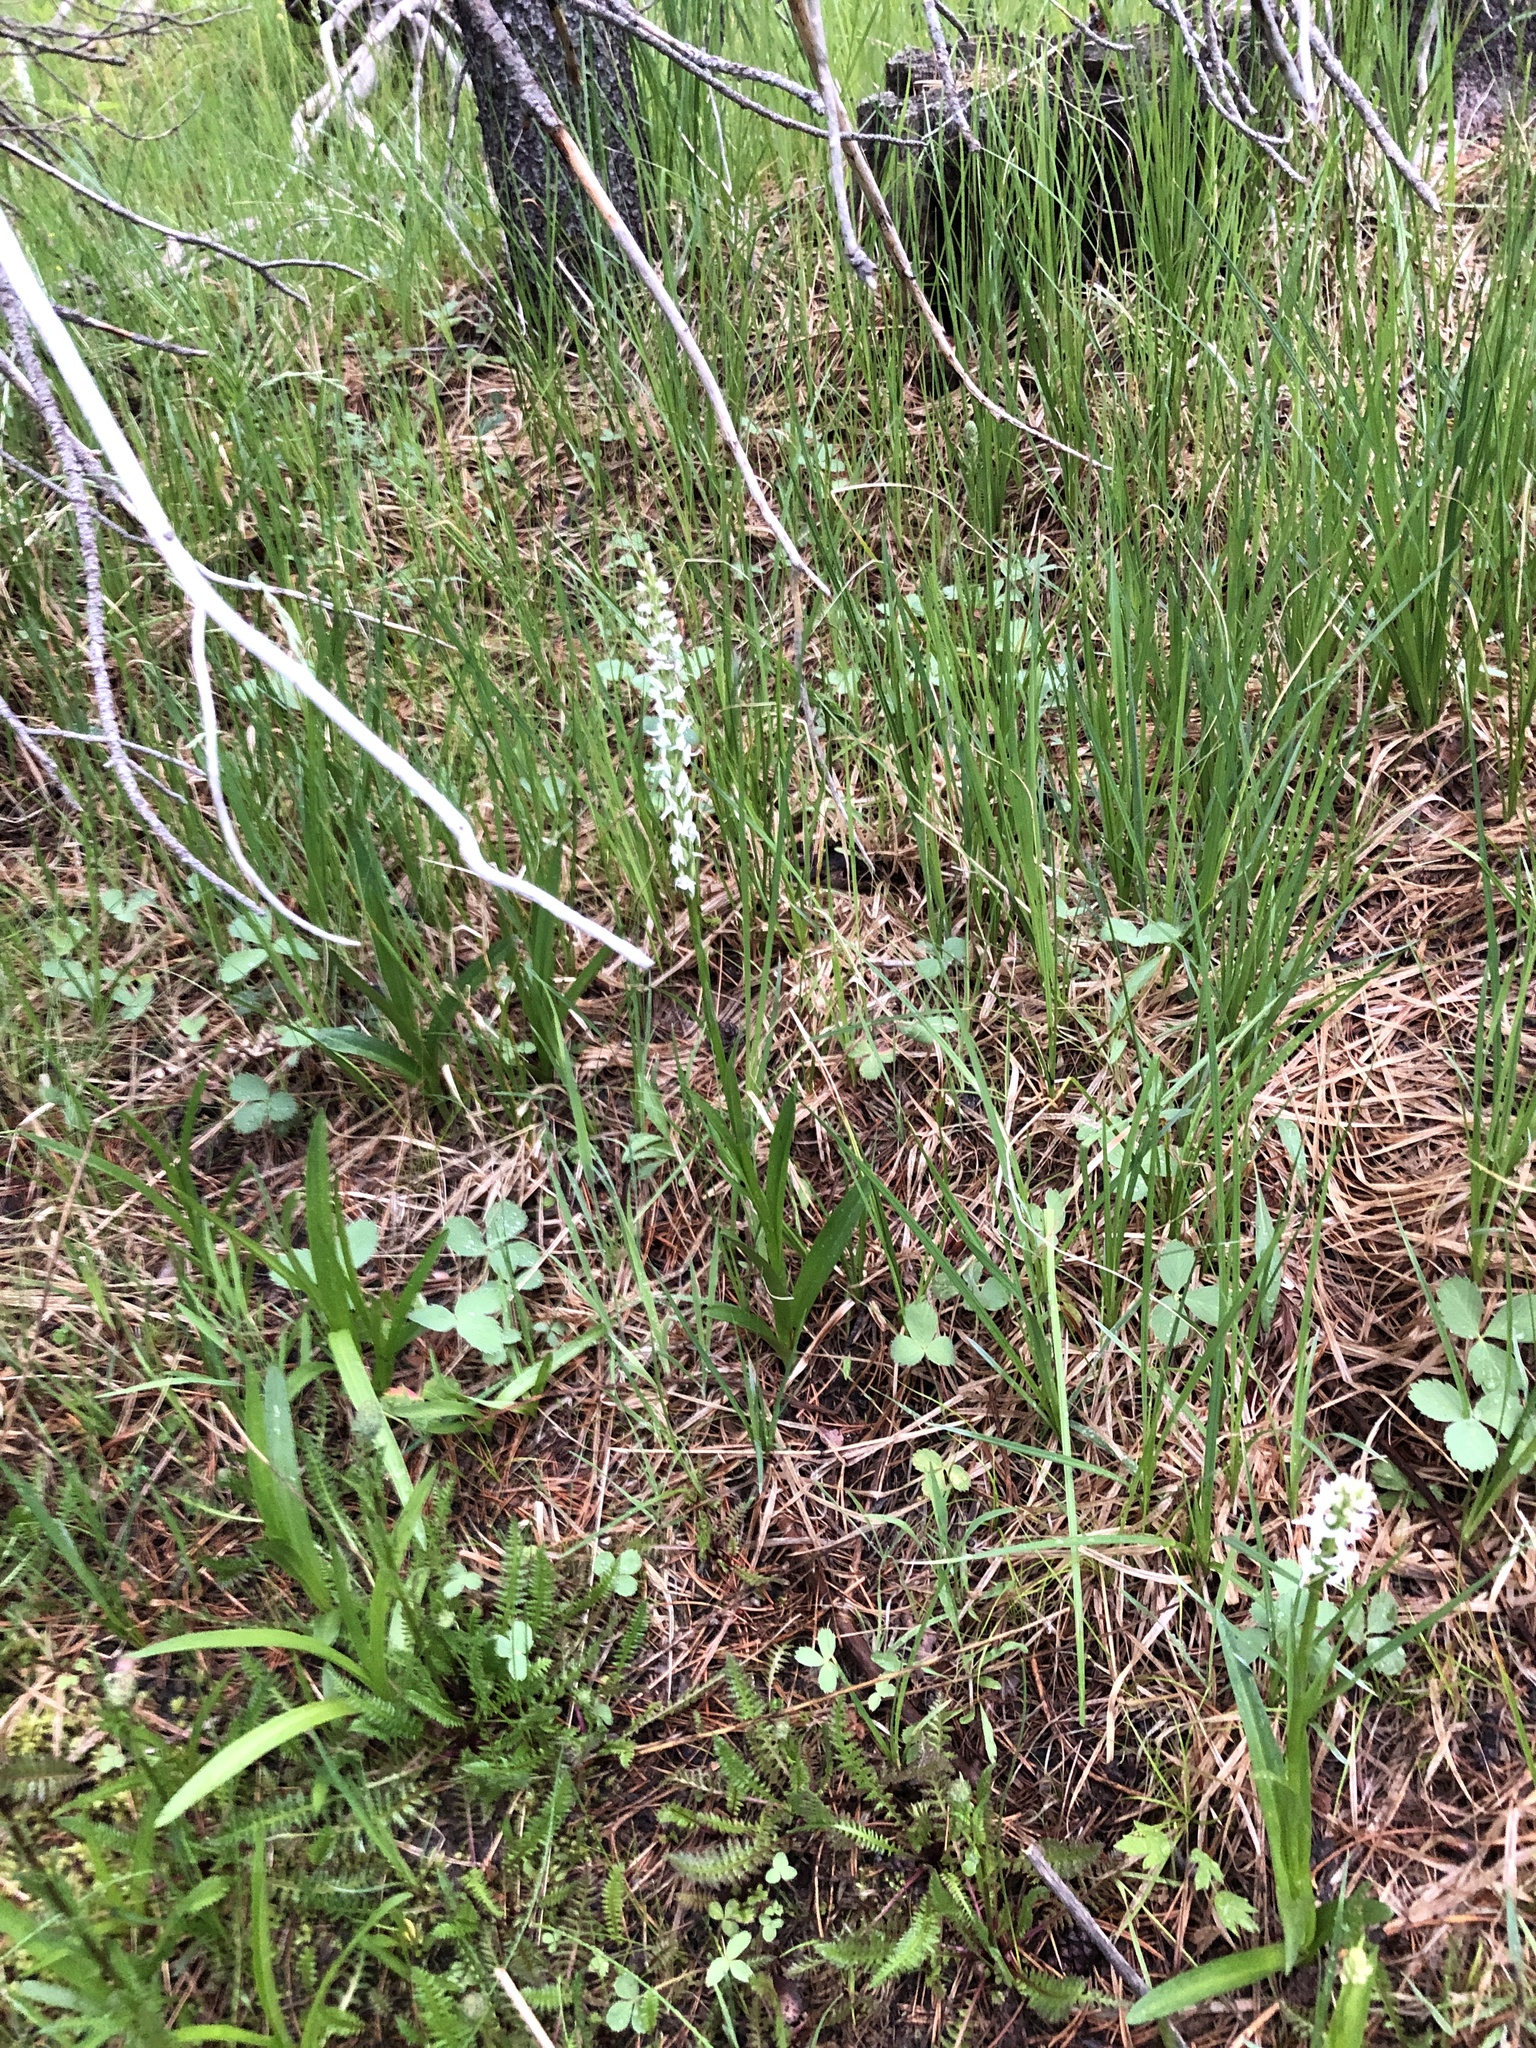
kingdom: Plantae
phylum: Tracheophyta
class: Liliopsida
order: Asparagales
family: Orchidaceae
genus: Platanthera
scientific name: Platanthera dilatata
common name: Bog candles
